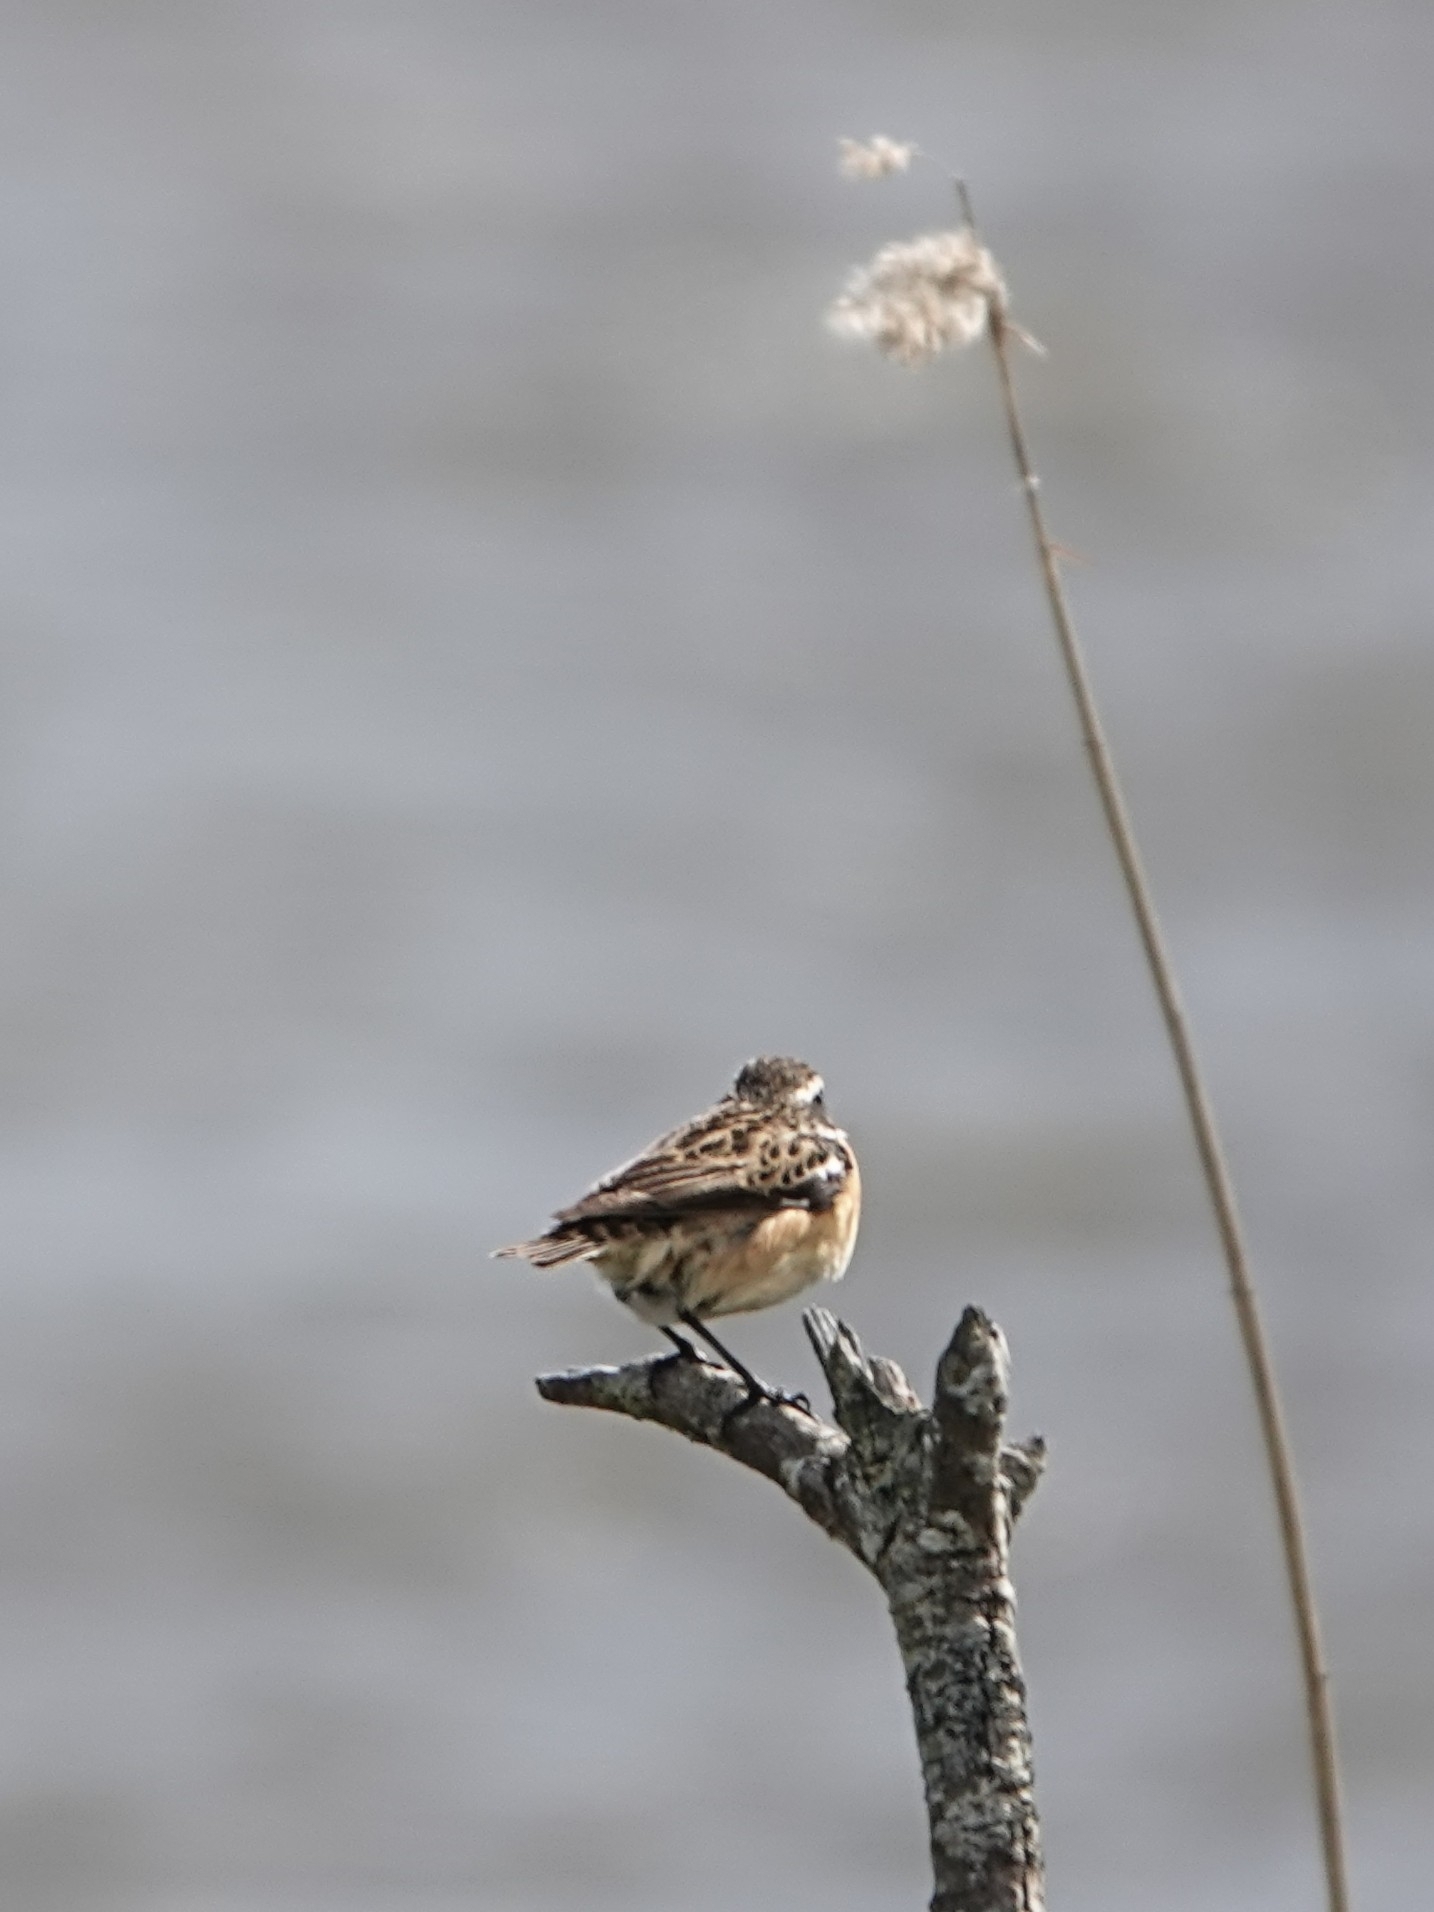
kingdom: Animalia
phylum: Chordata
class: Aves
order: Passeriformes
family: Muscicapidae
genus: Saxicola
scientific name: Saxicola rubetra
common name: Whinchat
